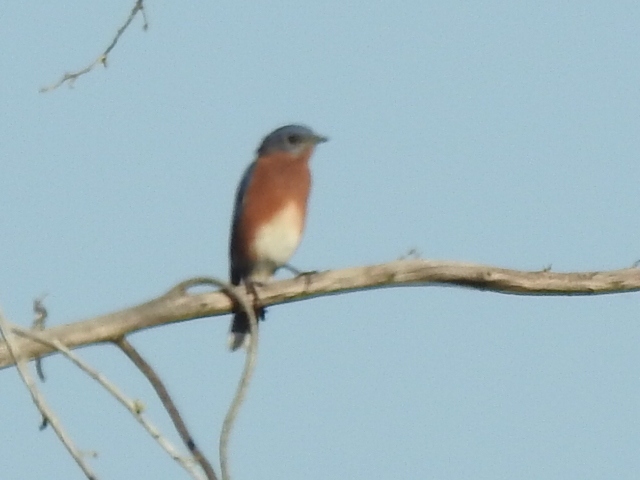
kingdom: Animalia
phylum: Chordata
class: Aves
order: Passeriformes
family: Turdidae
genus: Sialia
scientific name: Sialia sialis
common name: Eastern bluebird
